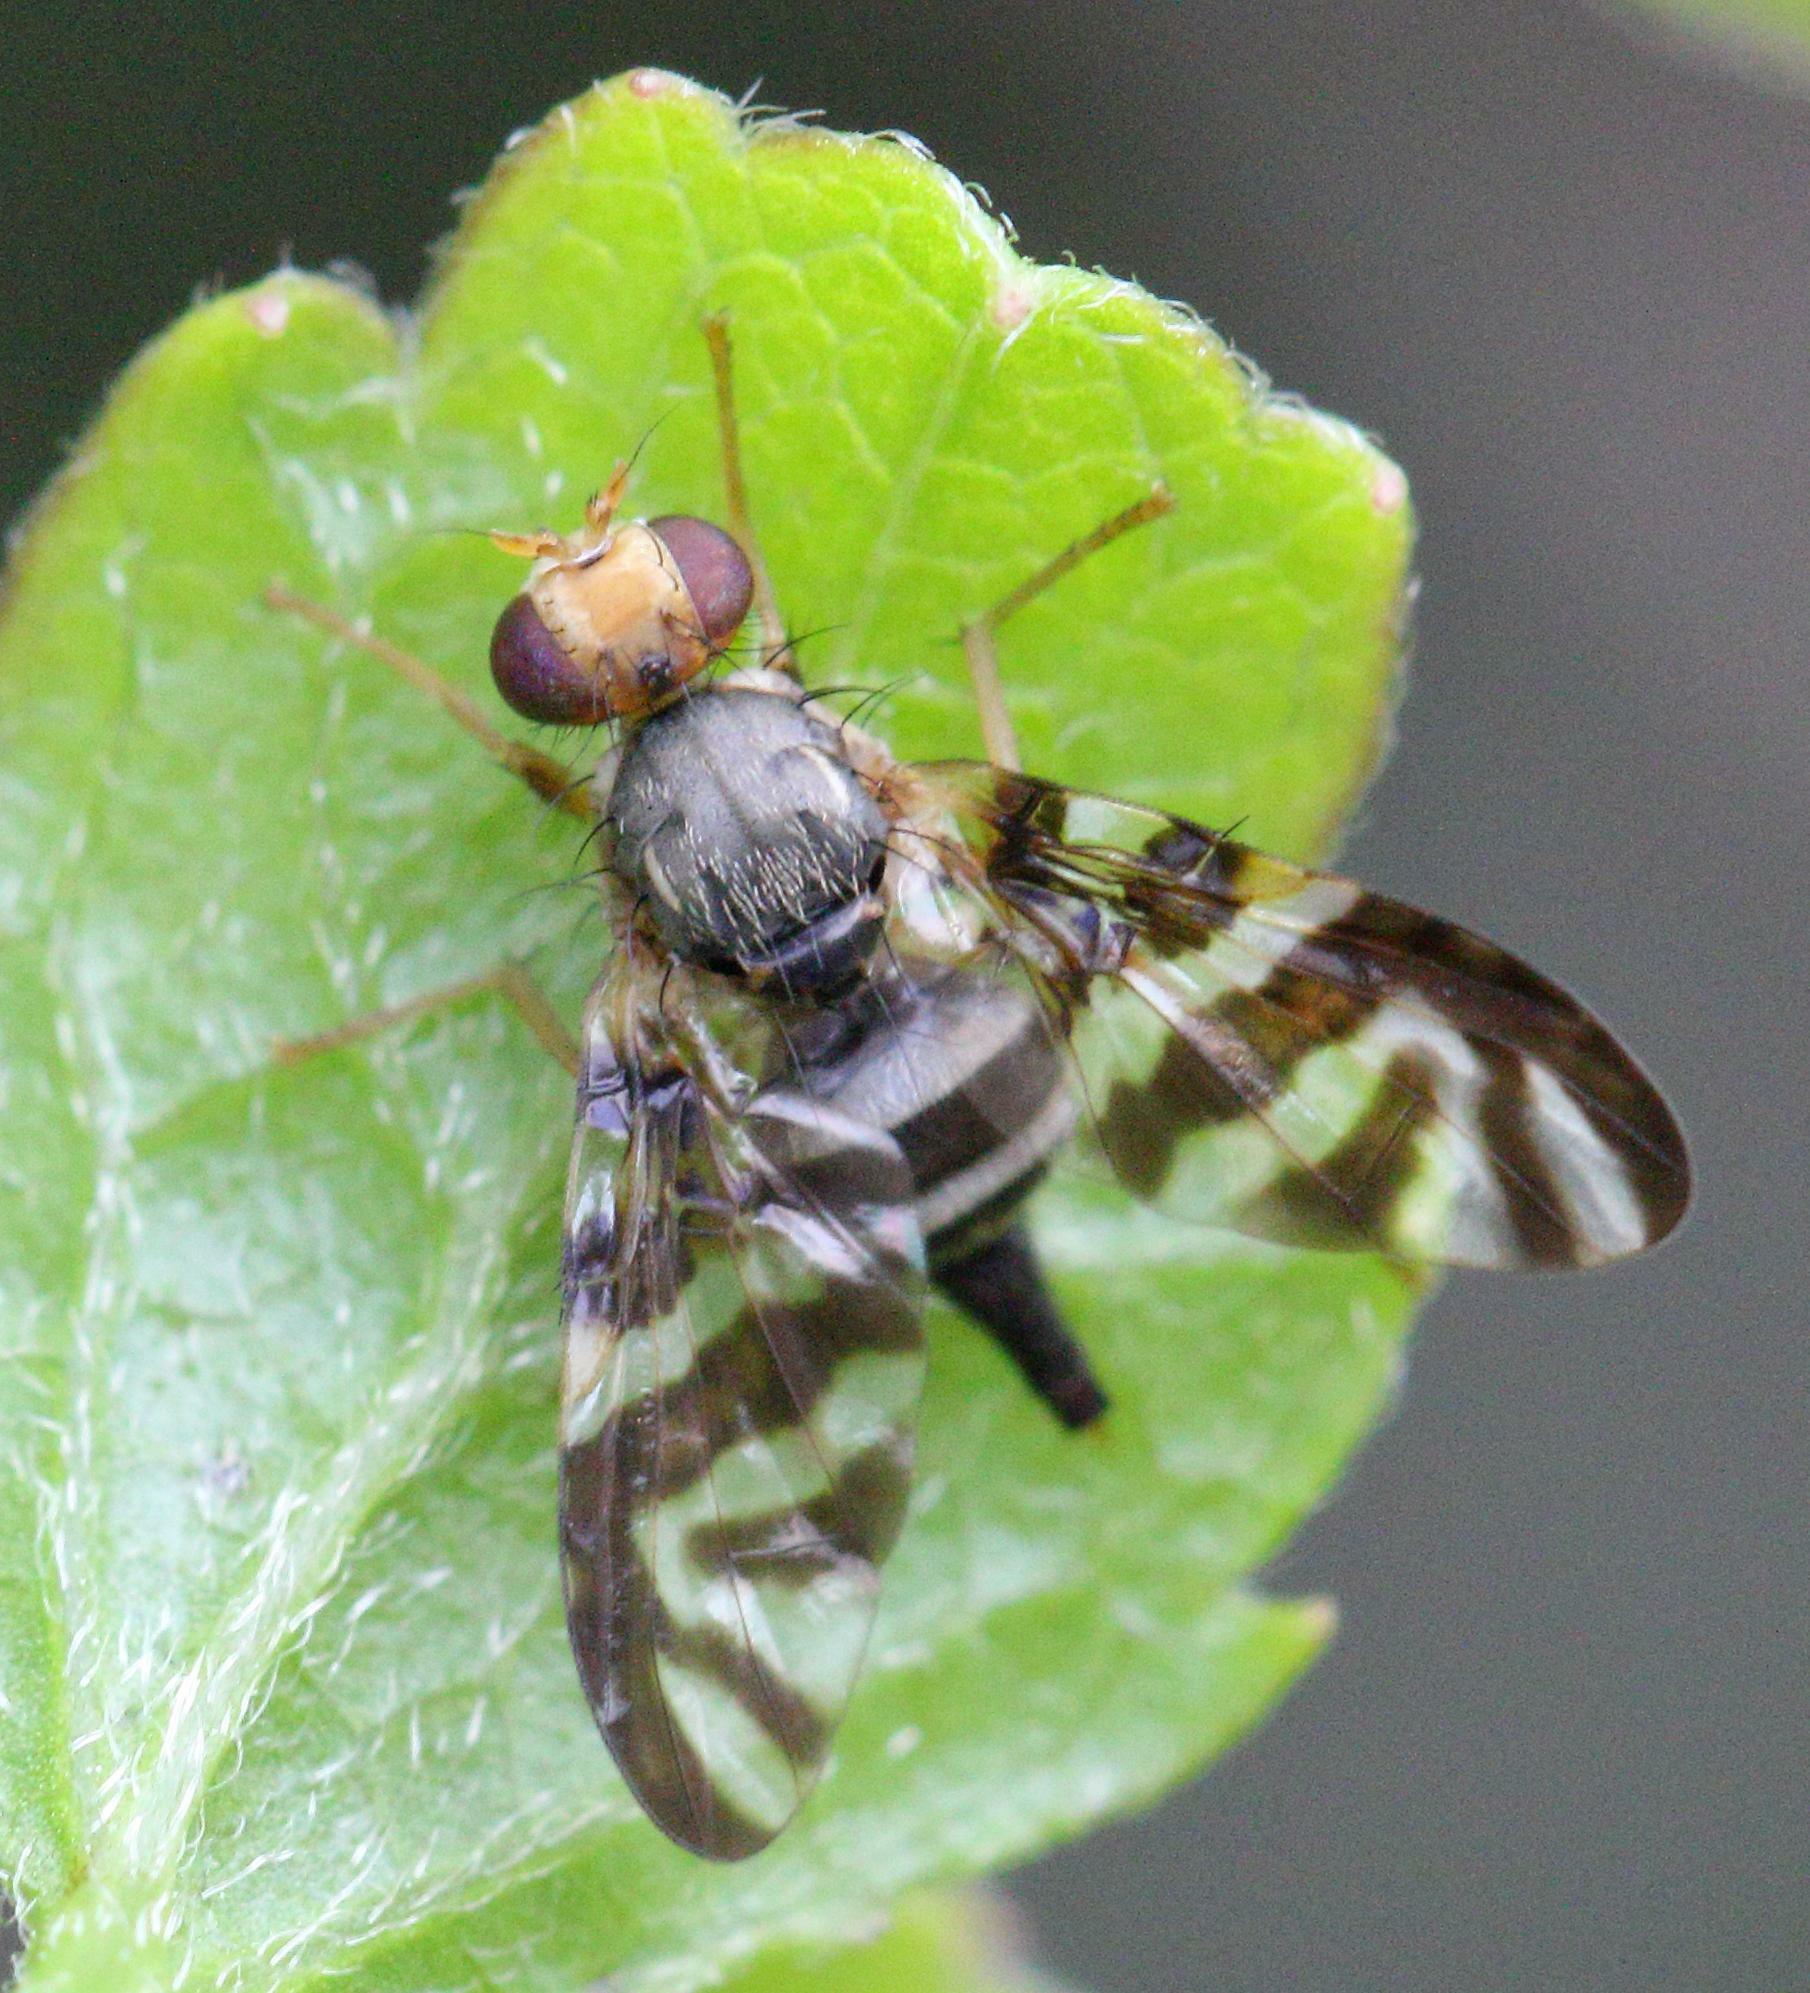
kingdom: Animalia
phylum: Arthropoda
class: Insecta
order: Diptera
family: Tephritidae
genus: Clinotaenia
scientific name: Clinotaenia grata
